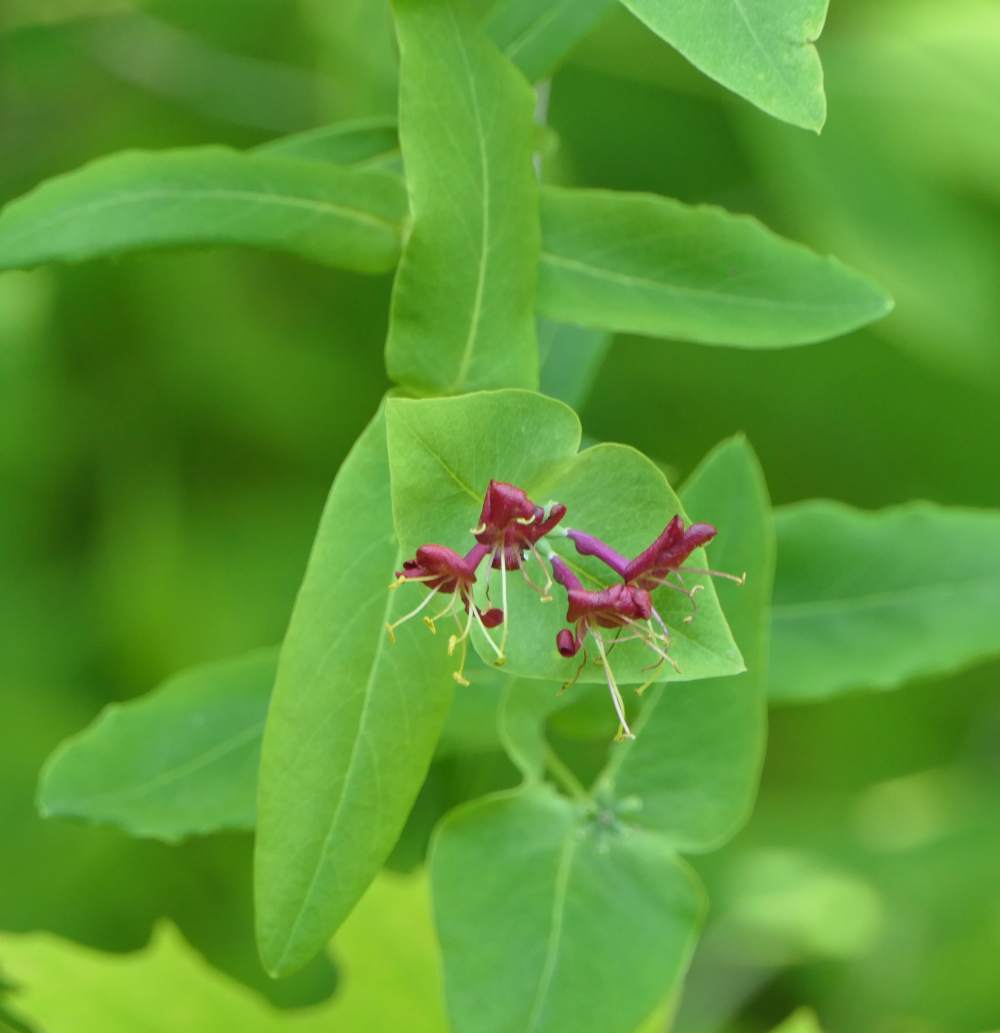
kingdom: Plantae
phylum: Tracheophyta
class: Magnoliopsida
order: Dipsacales
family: Caprifoliaceae
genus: Lonicera
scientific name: Lonicera dioica
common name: Limber honeysuckle
